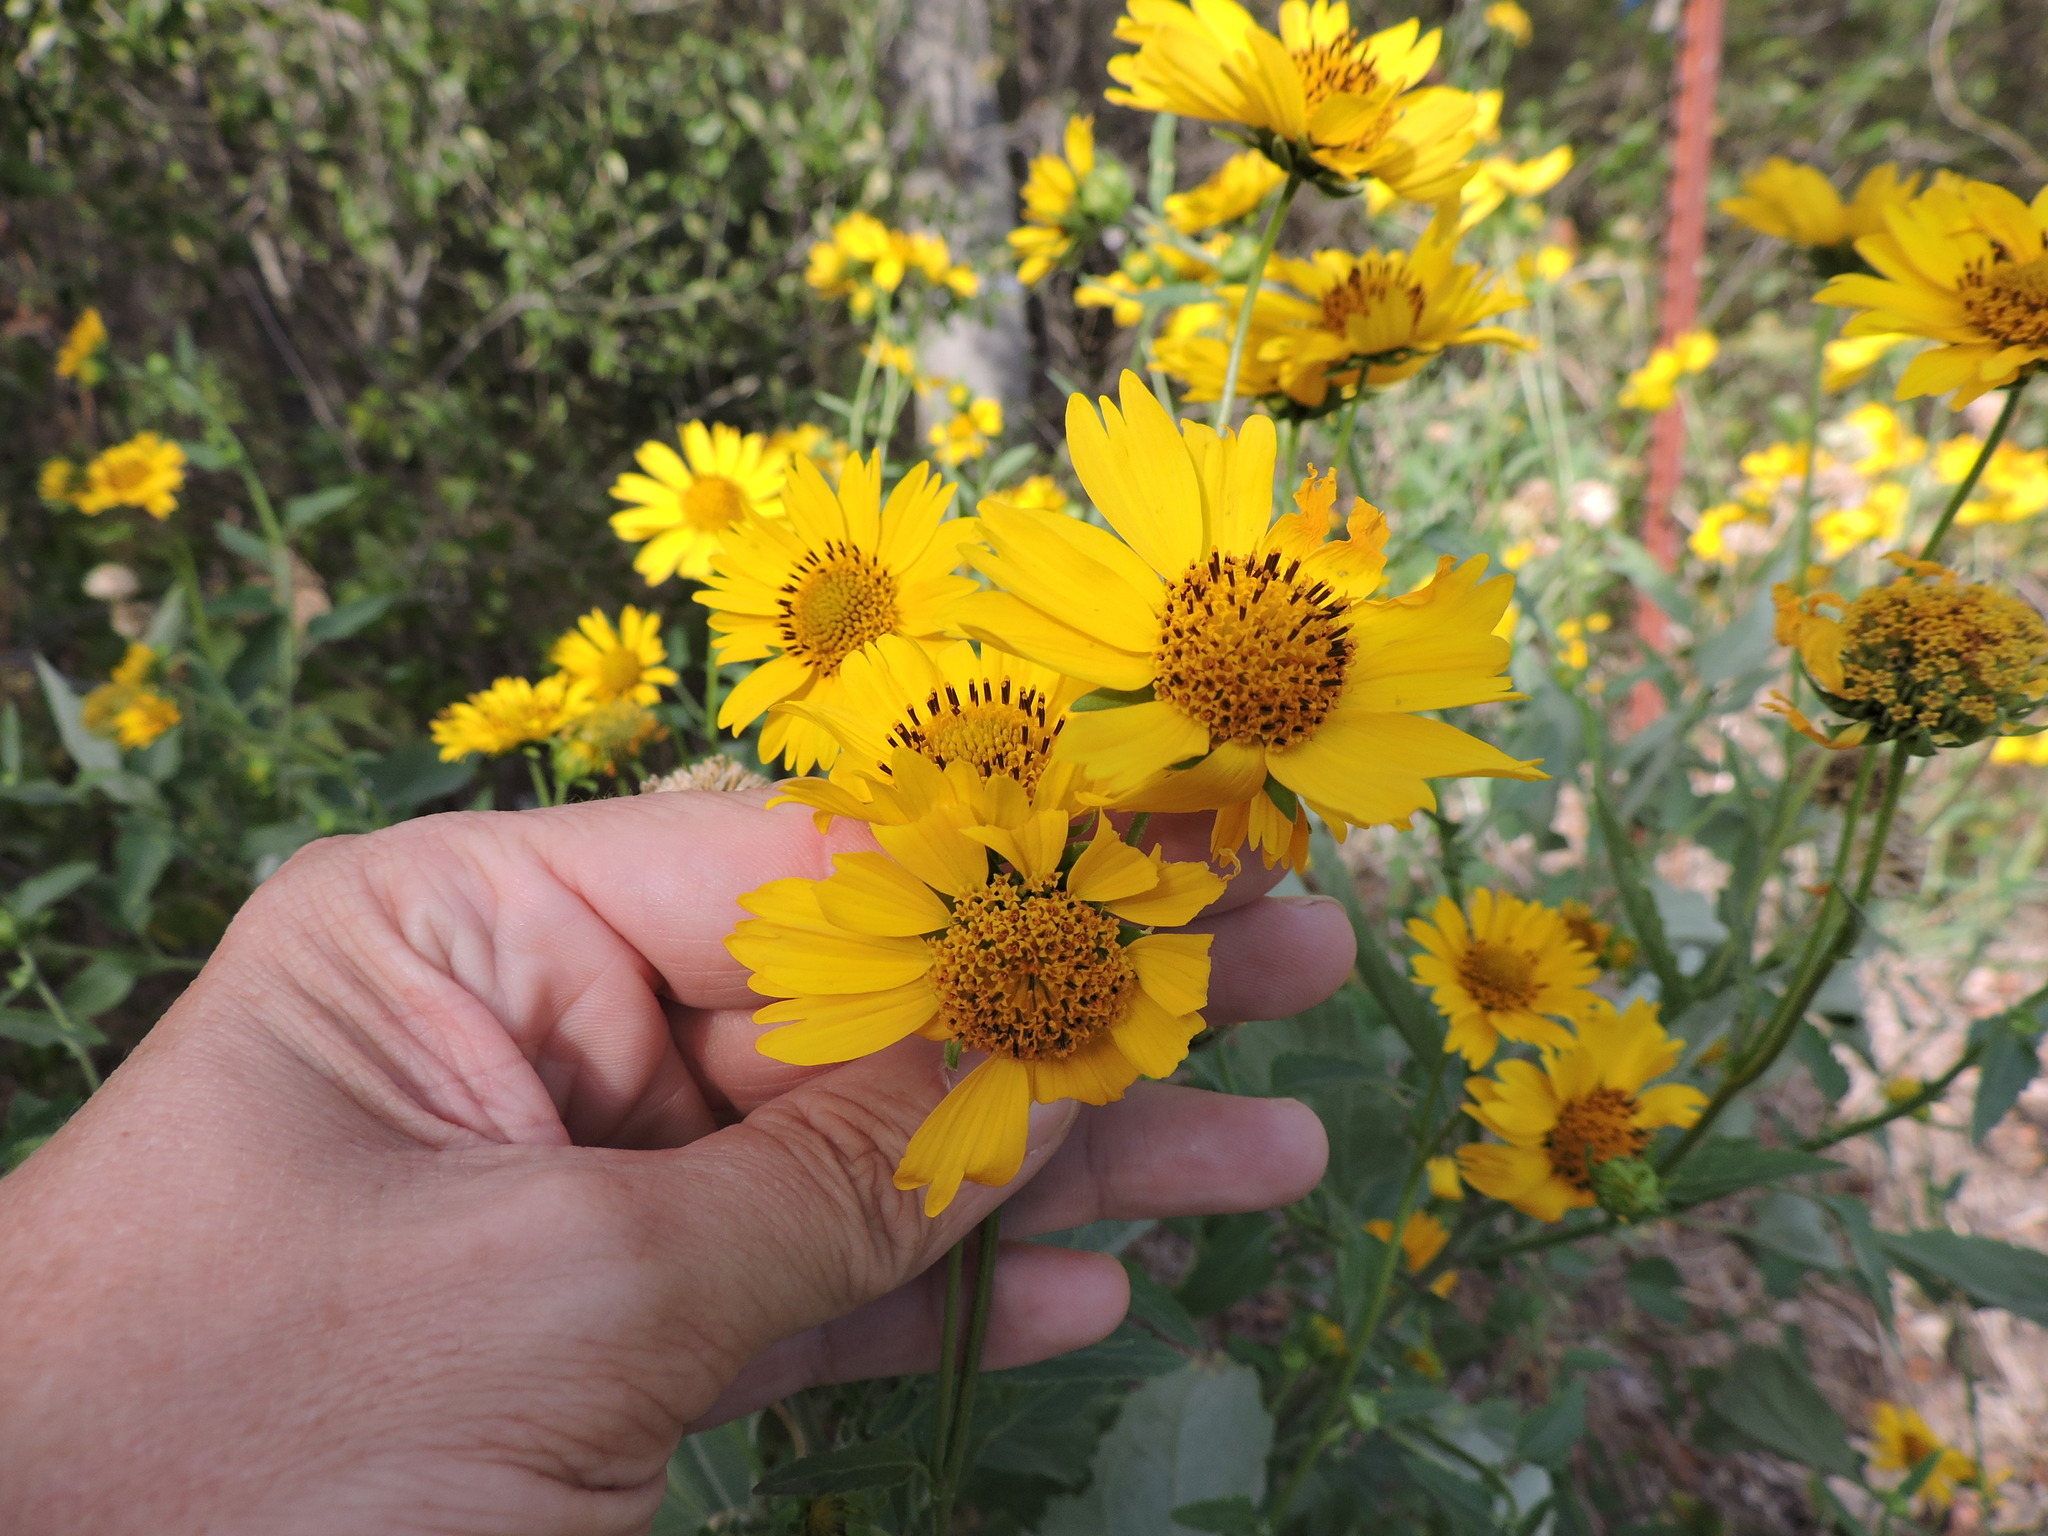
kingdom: Plantae
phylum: Tracheophyta
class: Magnoliopsida
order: Asterales
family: Asteraceae
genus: Verbesina
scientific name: Verbesina encelioides
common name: Golden crownbeard
